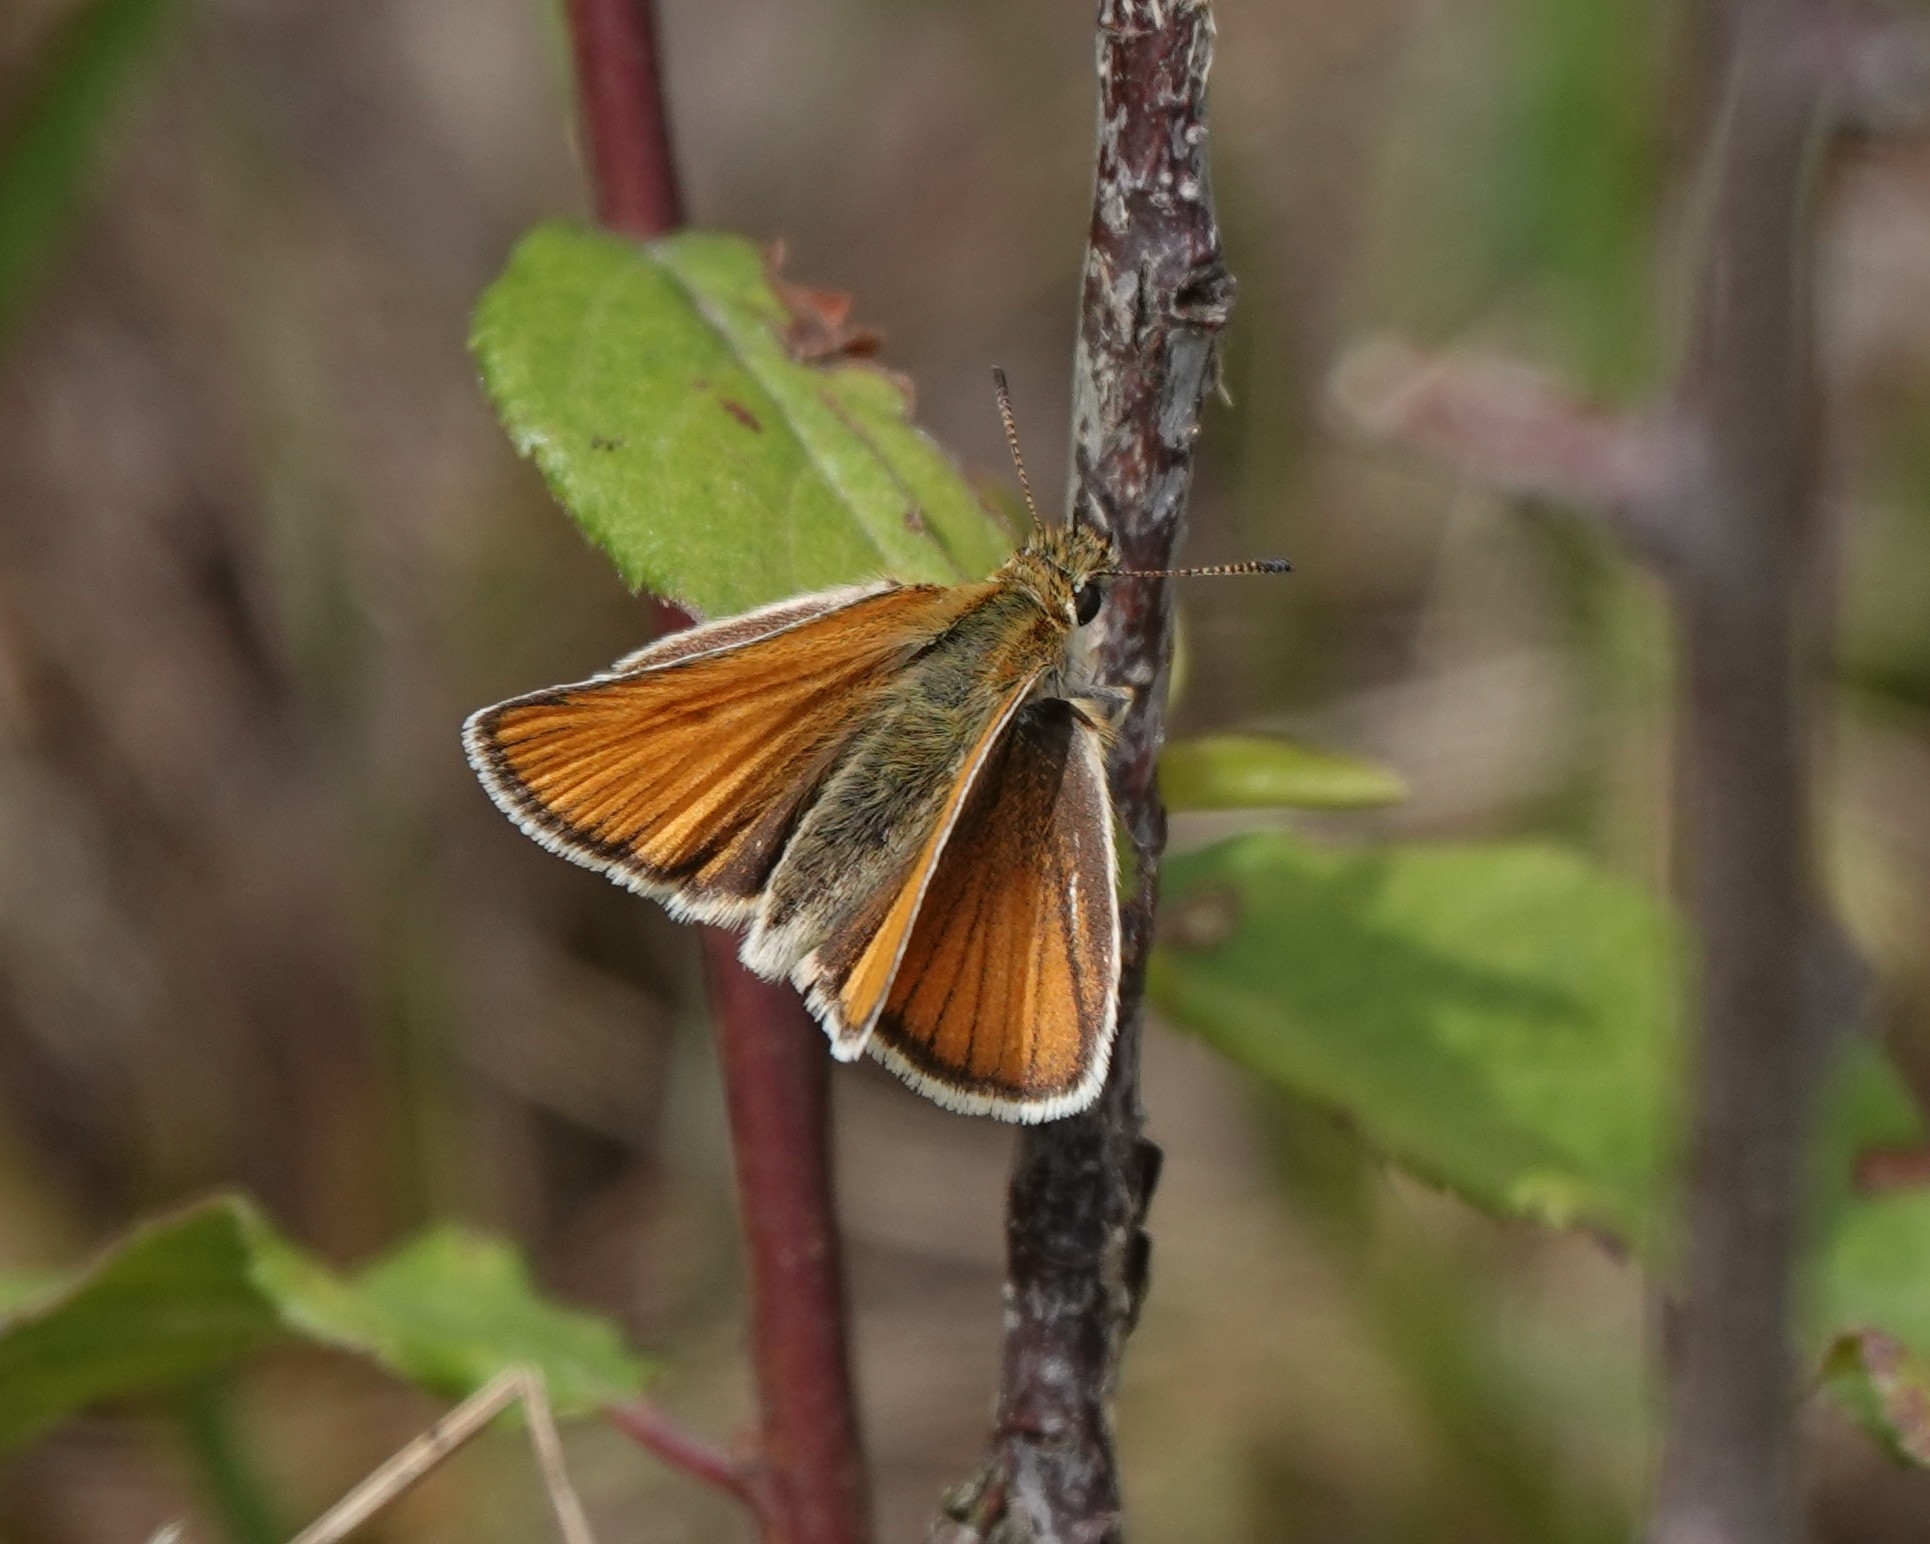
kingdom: Animalia
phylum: Arthropoda
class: Insecta
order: Lepidoptera
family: Hesperiidae
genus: Thymelicus
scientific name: Thymelicus lineola
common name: Essex skipper
